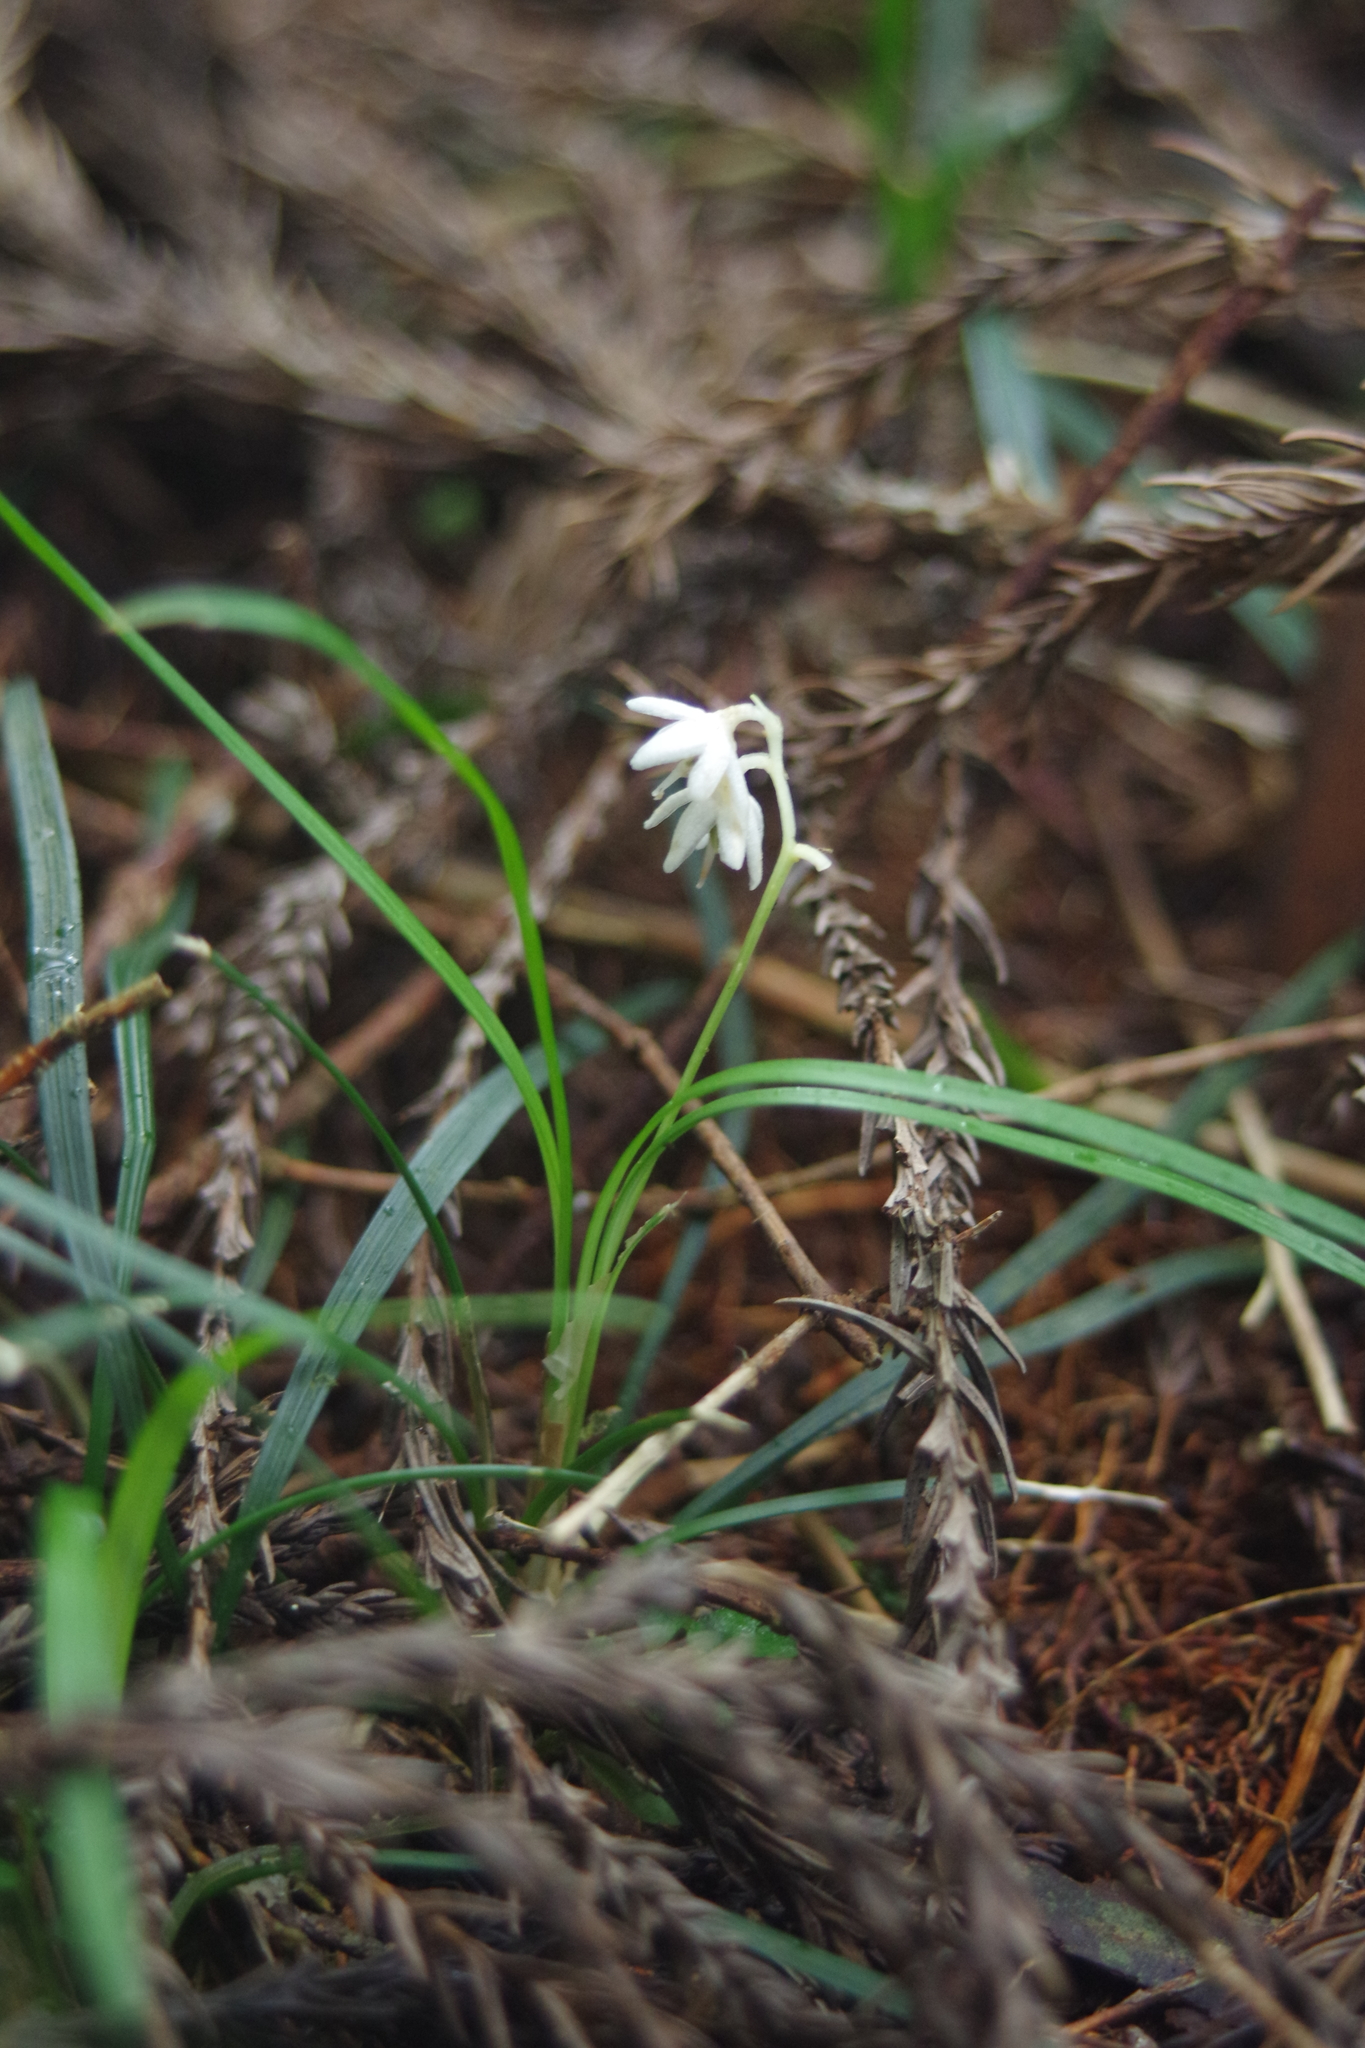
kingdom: Plantae
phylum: Tracheophyta
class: Liliopsida
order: Asparagales
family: Asparagaceae
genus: Ophiopogon
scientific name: Ophiopogon intermedius
